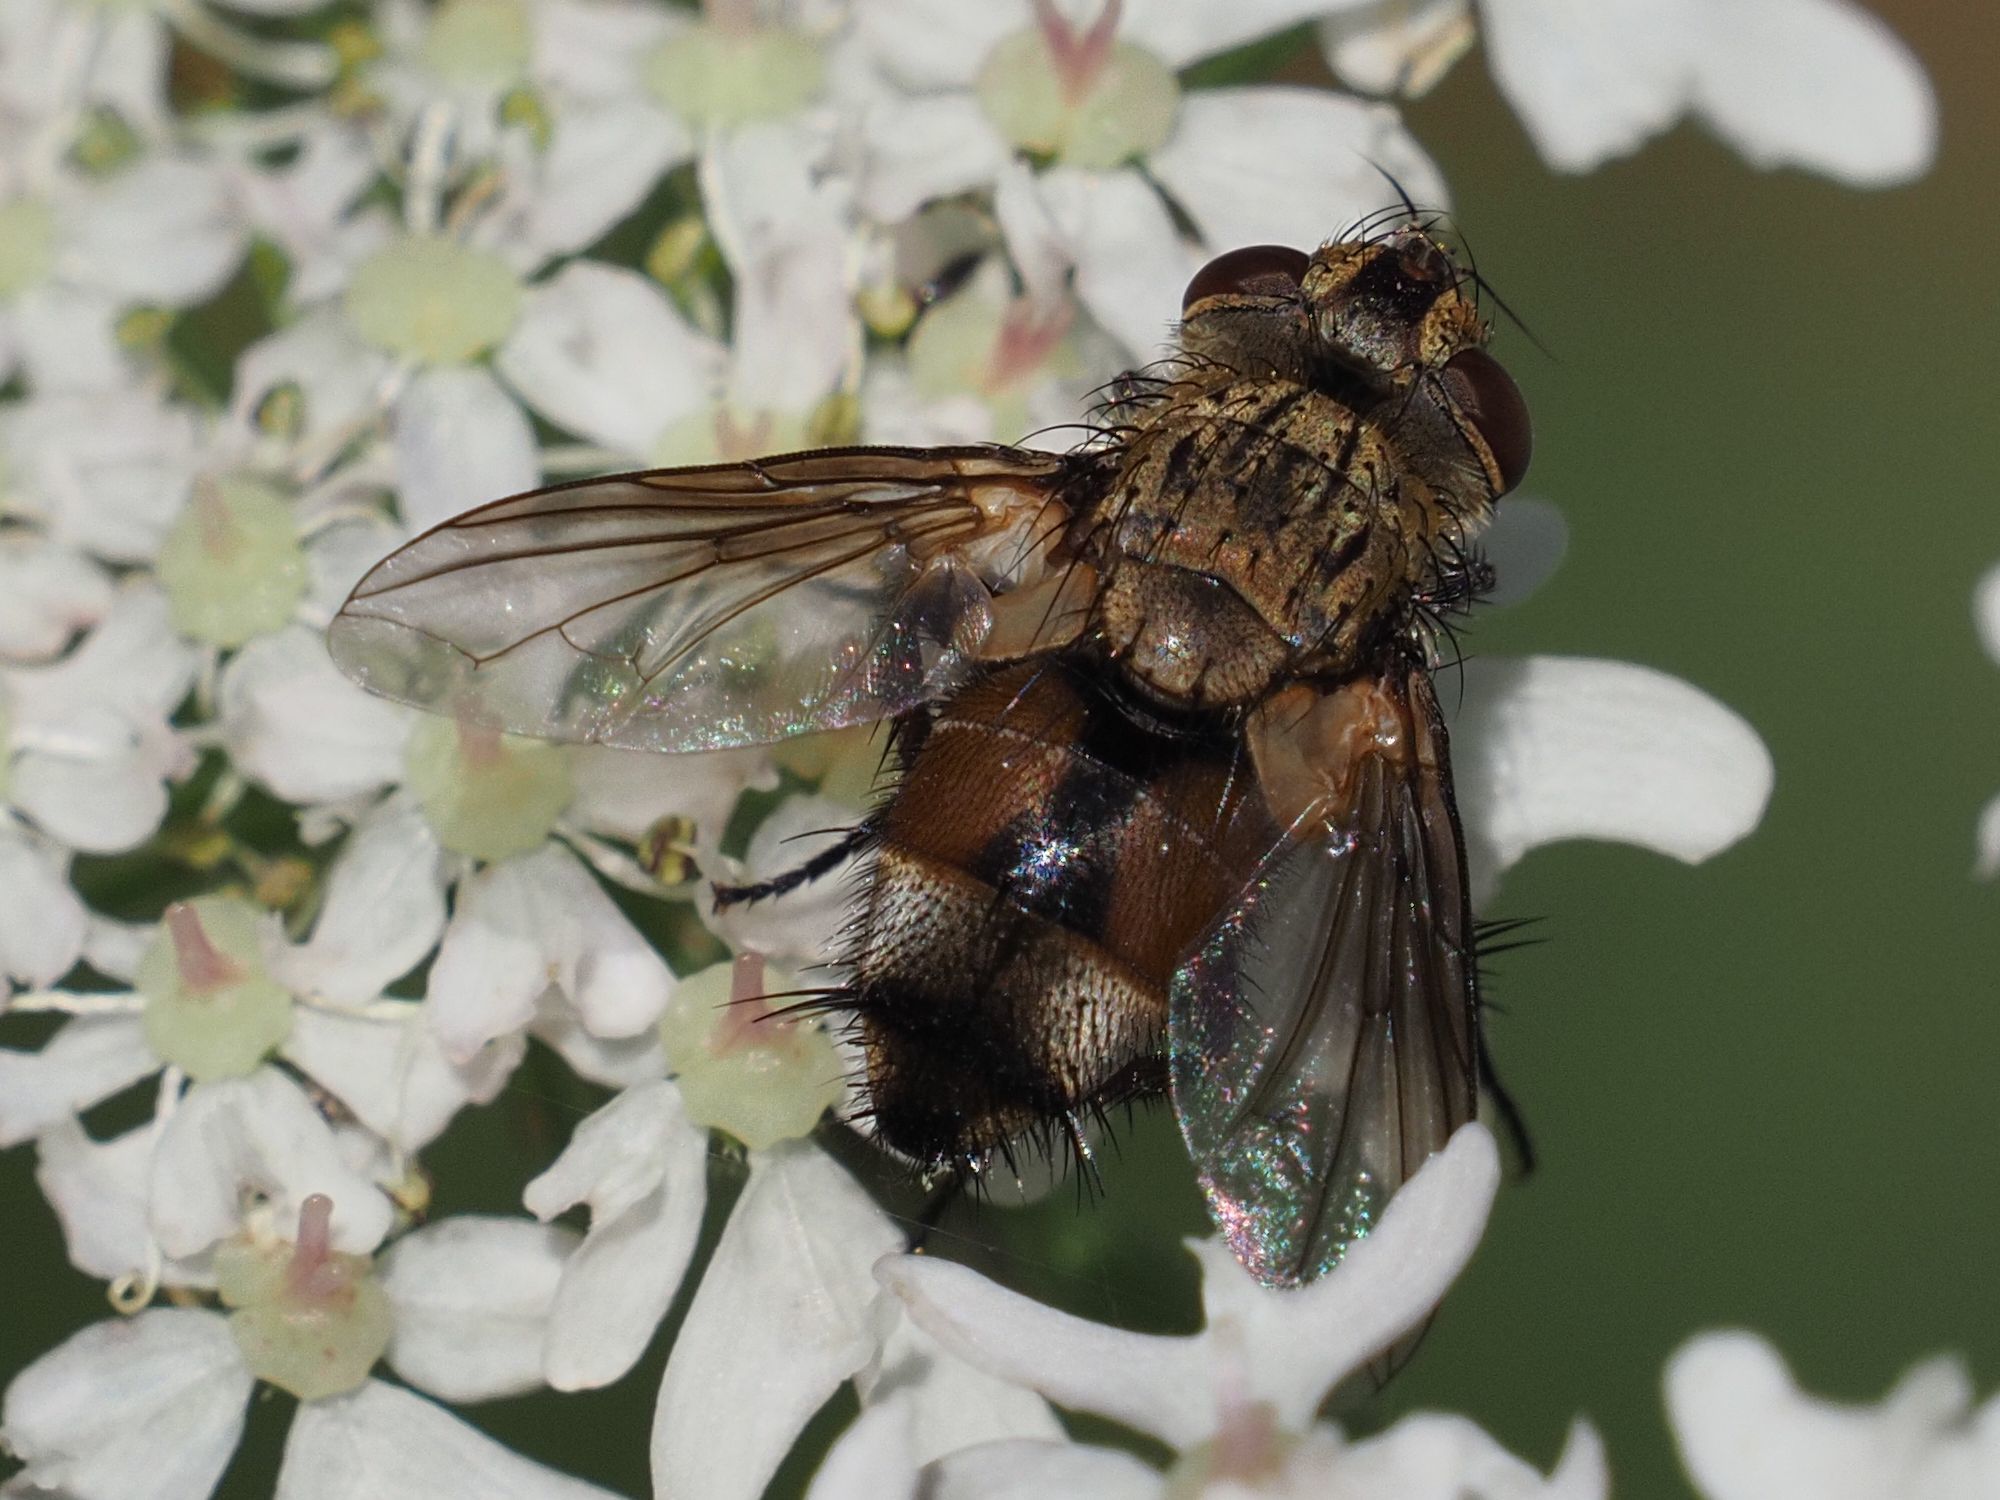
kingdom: Animalia
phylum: Arthropoda
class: Insecta
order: Diptera
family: Tachinidae
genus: Frontina
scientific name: Frontina laeta
